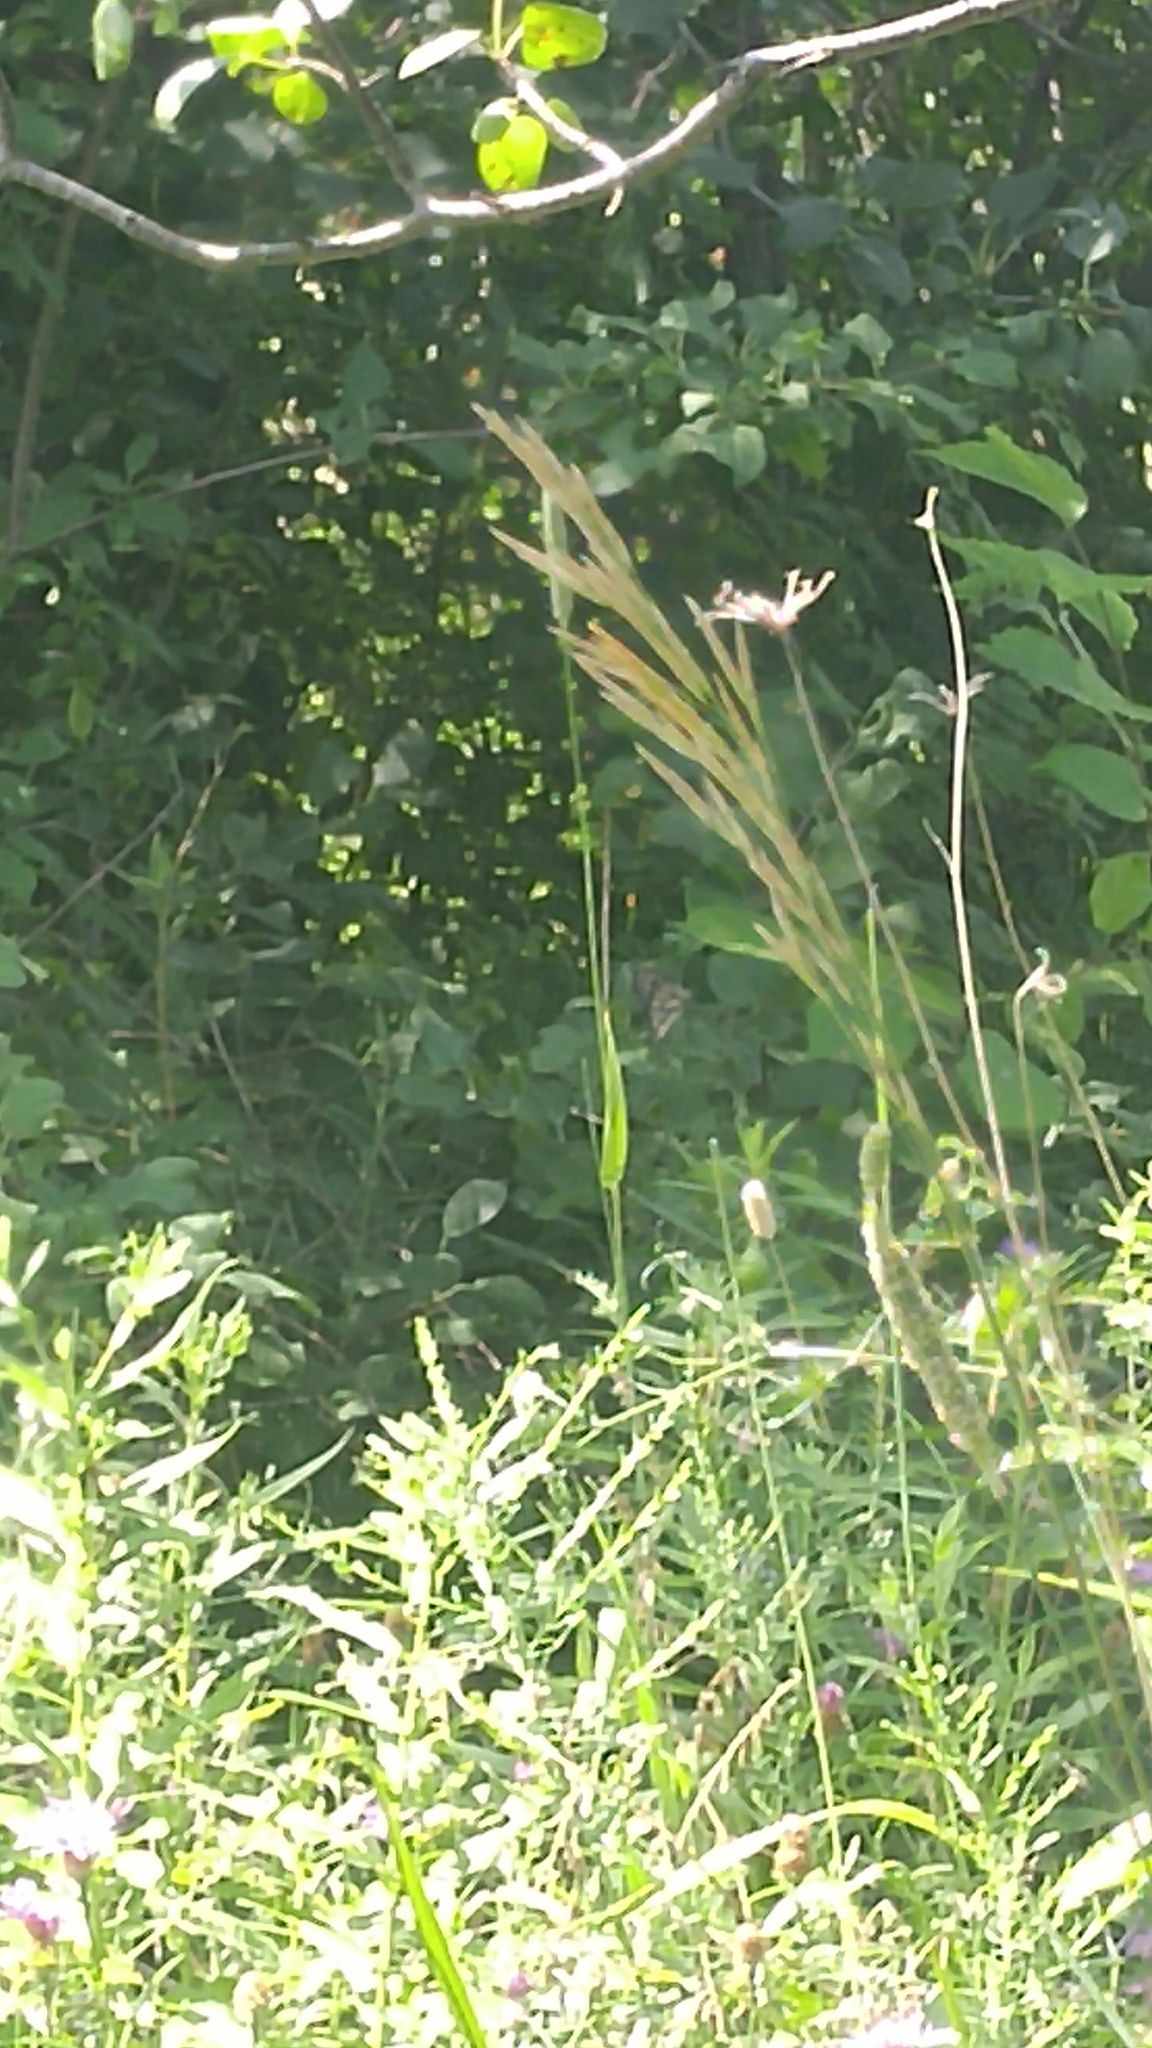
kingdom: Animalia
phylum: Arthropoda
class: Insecta
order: Lepidoptera
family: Nymphalidae
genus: Danaus
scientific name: Danaus plexippus
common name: Monarch
